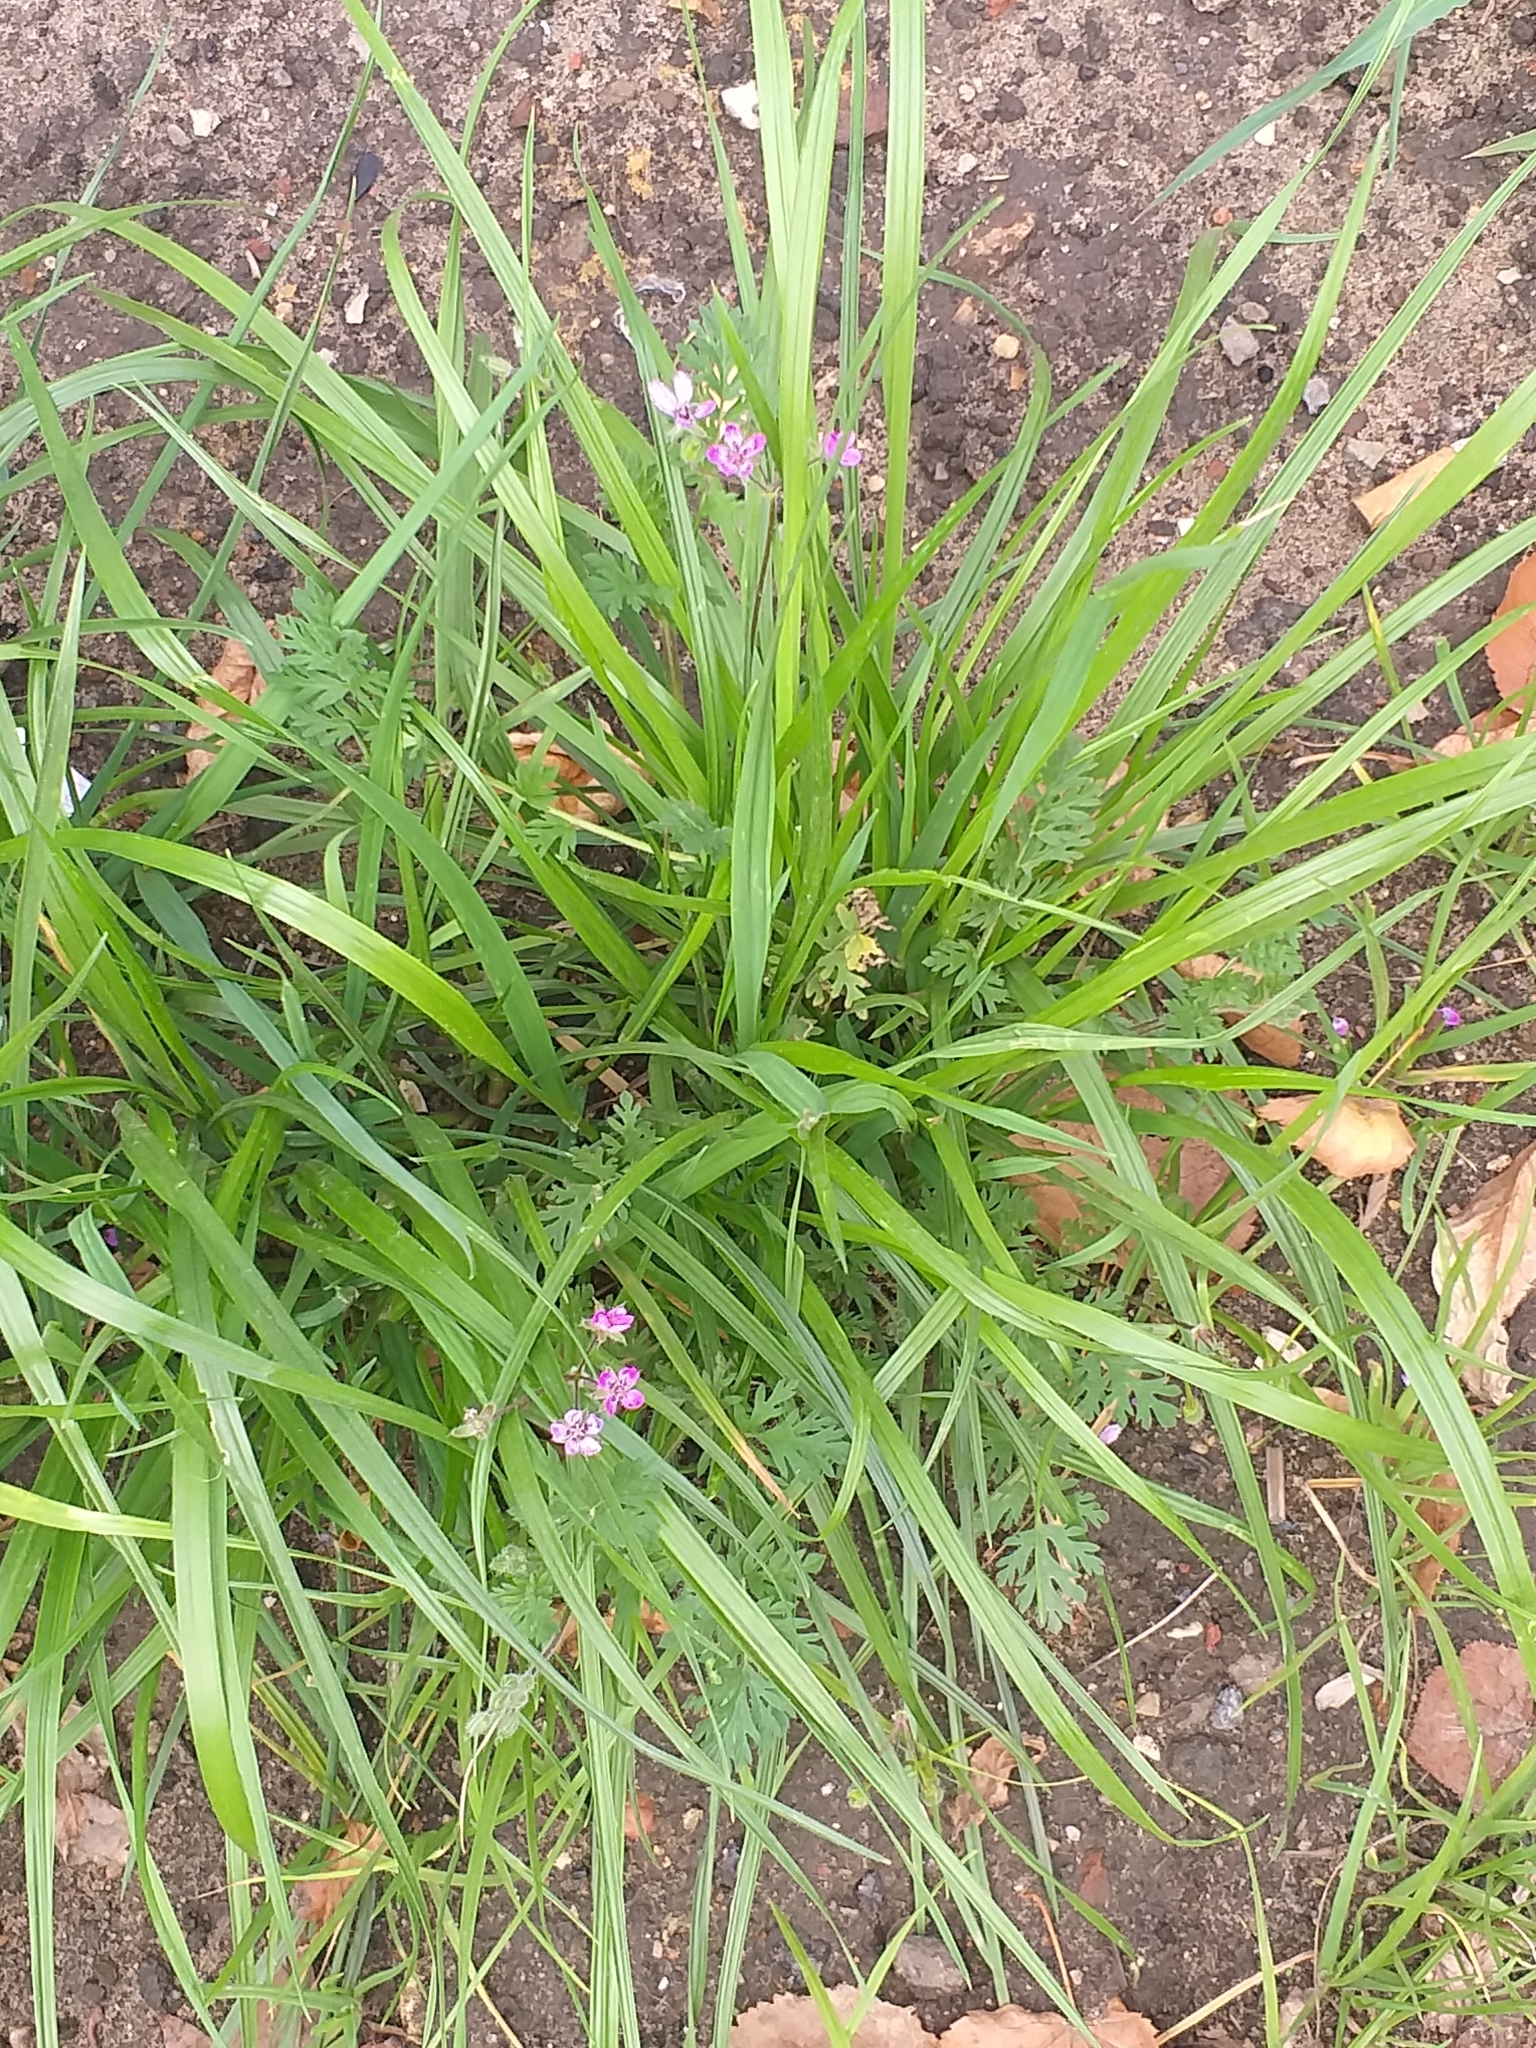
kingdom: Plantae
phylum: Tracheophyta
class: Magnoliopsida
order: Geraniales
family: Geraniaceae
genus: Erodium
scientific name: Erodium cicutarium
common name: Common stork's-bill
